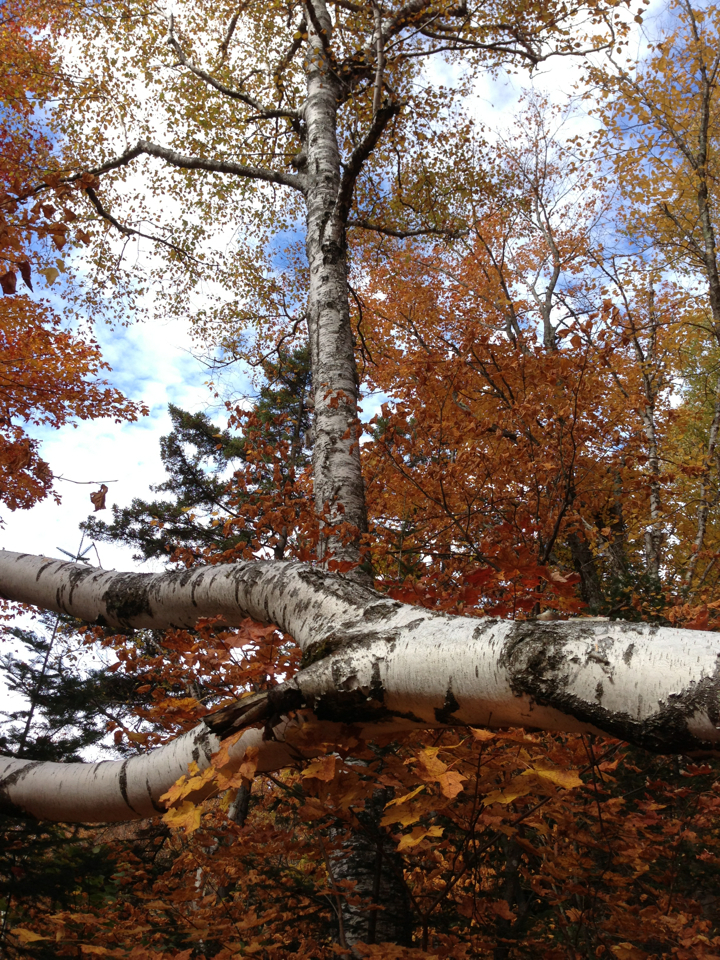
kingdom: Plantae
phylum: Tracheophyta
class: Magnoliopsida
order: Fagales
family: Betulaceae
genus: Betula
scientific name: Betula papyrifera
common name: Paper birch
